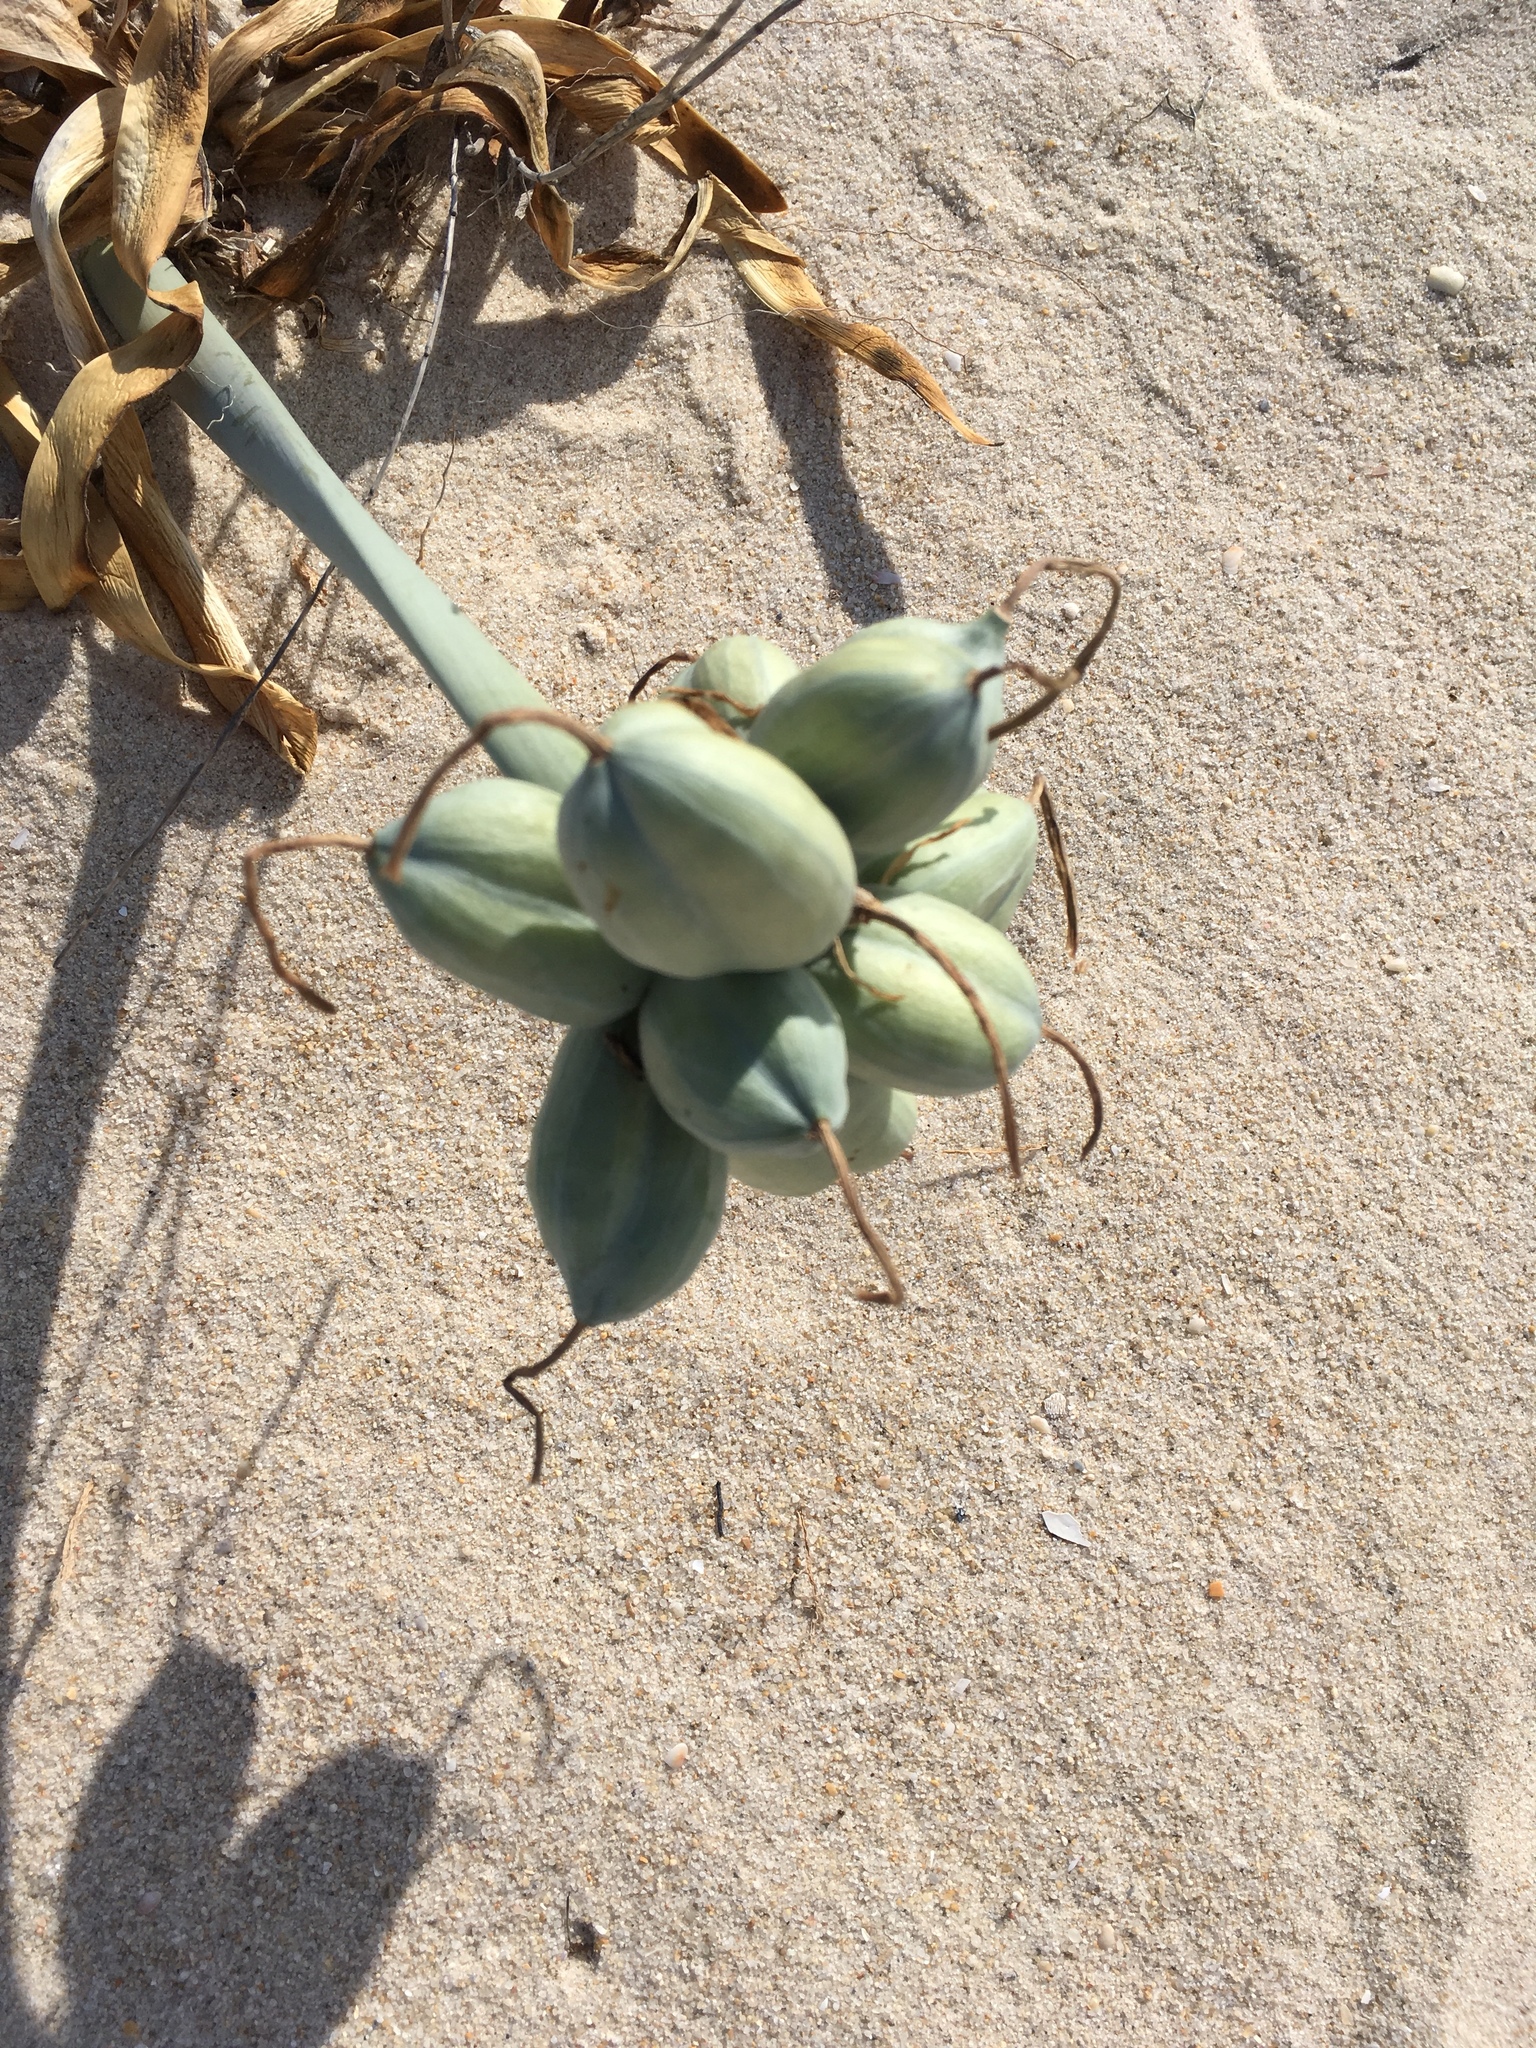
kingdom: Plantae
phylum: Tracheophyta
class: Liliopsida
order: Asparagales
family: Amaryllidaceae
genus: Pancratium
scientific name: Pancratium maritimum
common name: Sea-daffodil
